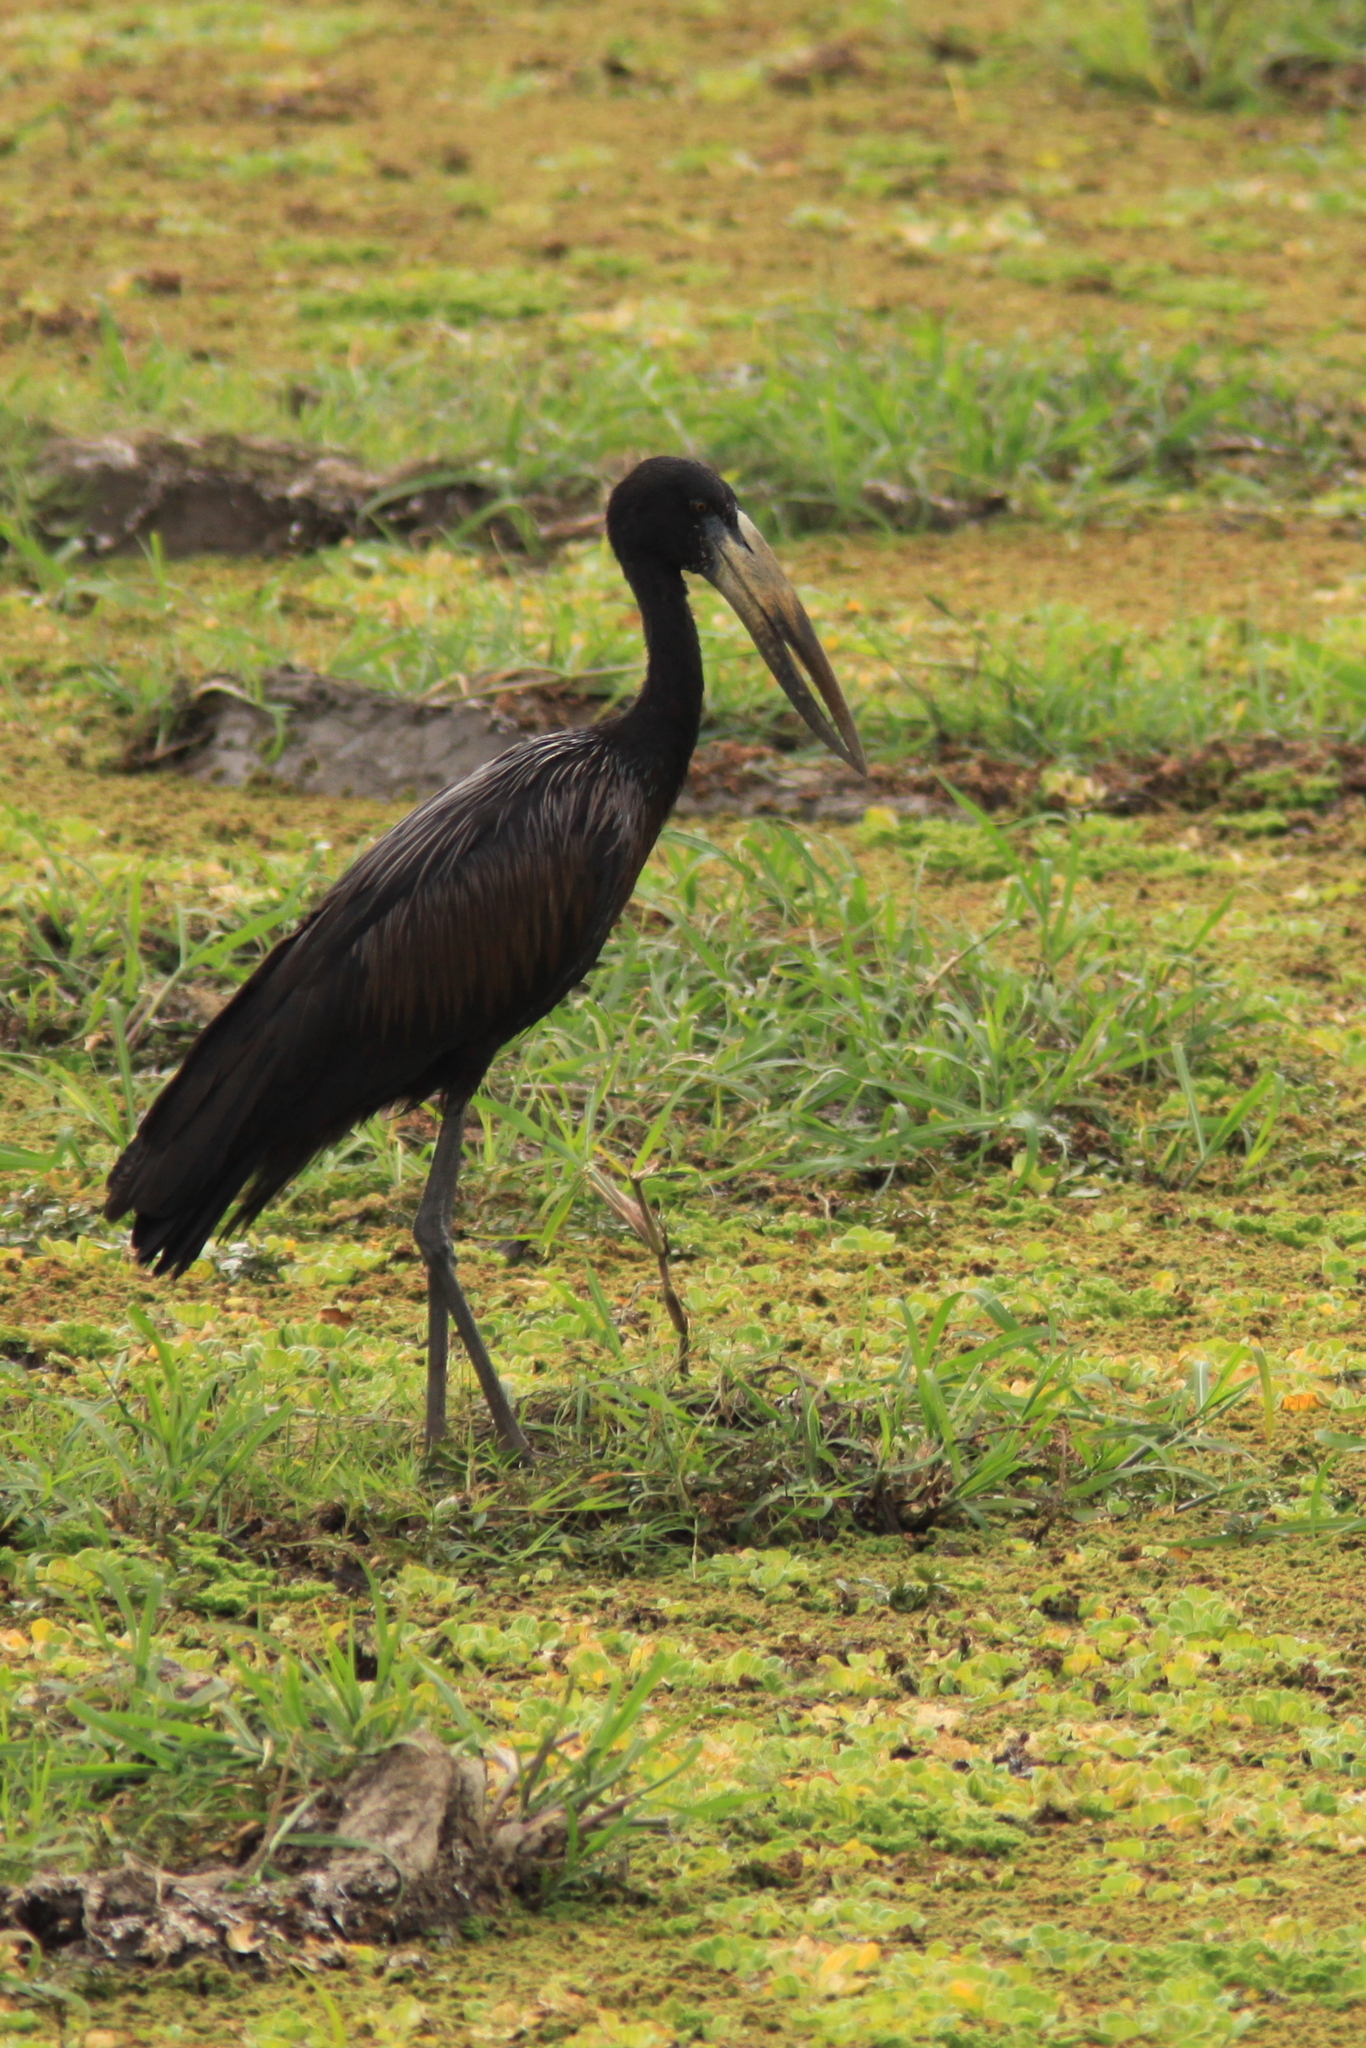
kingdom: Animalia
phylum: Chordata
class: Aves
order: Ciconiiformes
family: Ciconiidae
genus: Anastomus
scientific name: Anastomus lamelligerus
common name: African openbill
